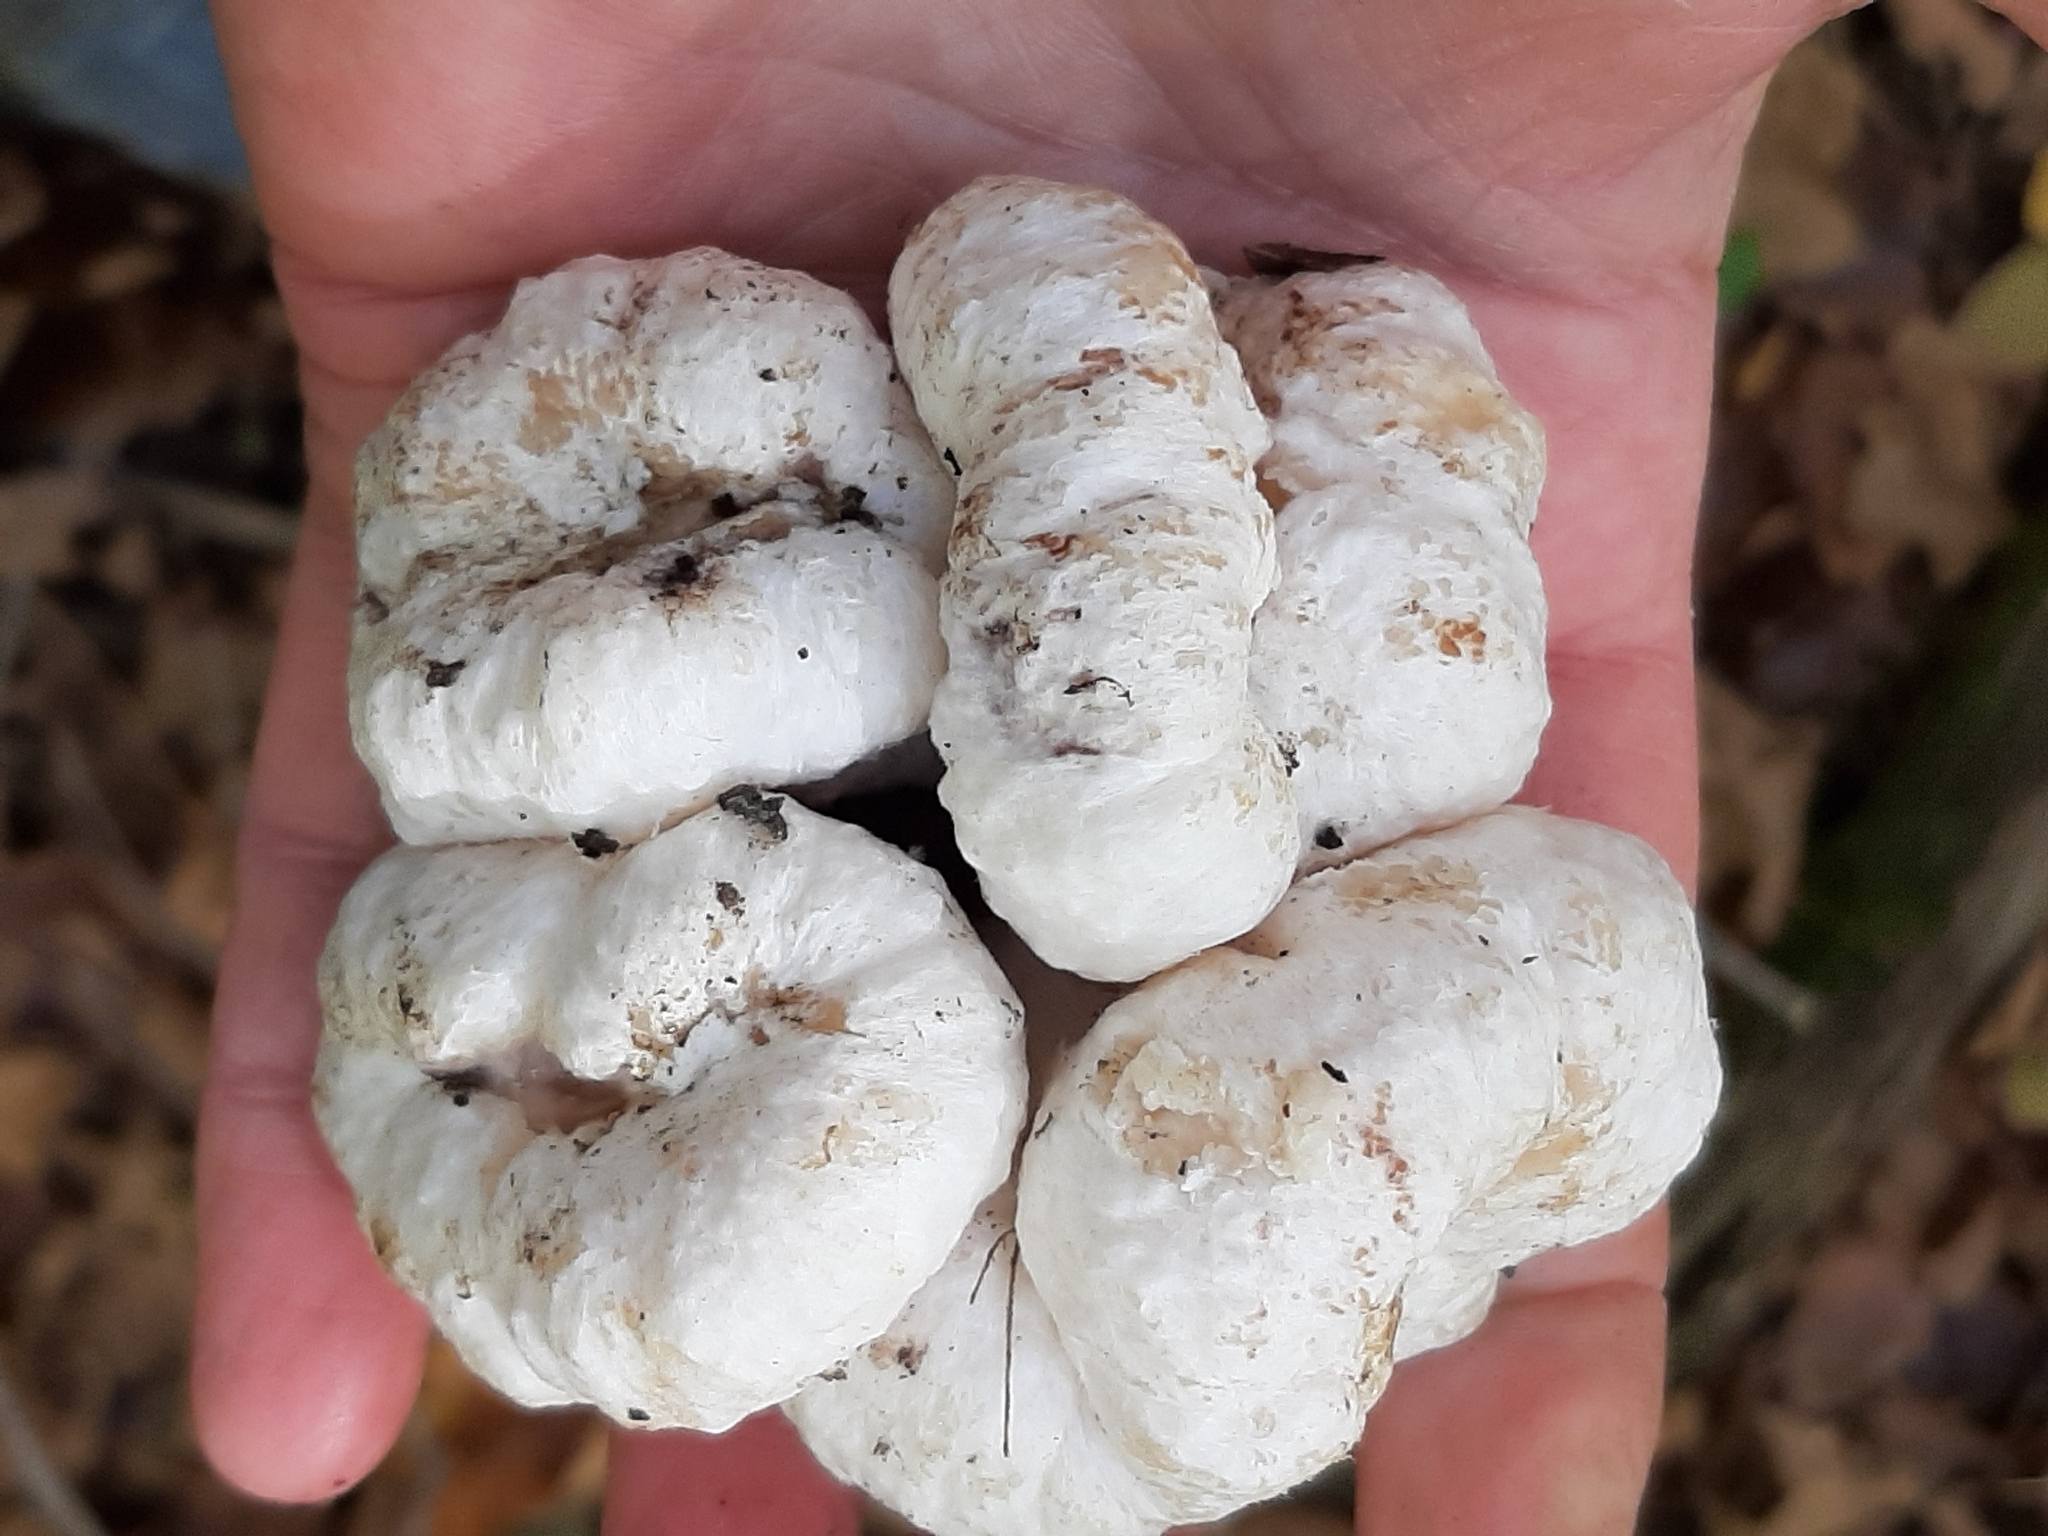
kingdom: Fungi
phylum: Basidiomycota
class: Agaricomycetes
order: Agaricales
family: Entolomataceae
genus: Entoloma
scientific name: Entoloma abortivum
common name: Aborted entoloma
